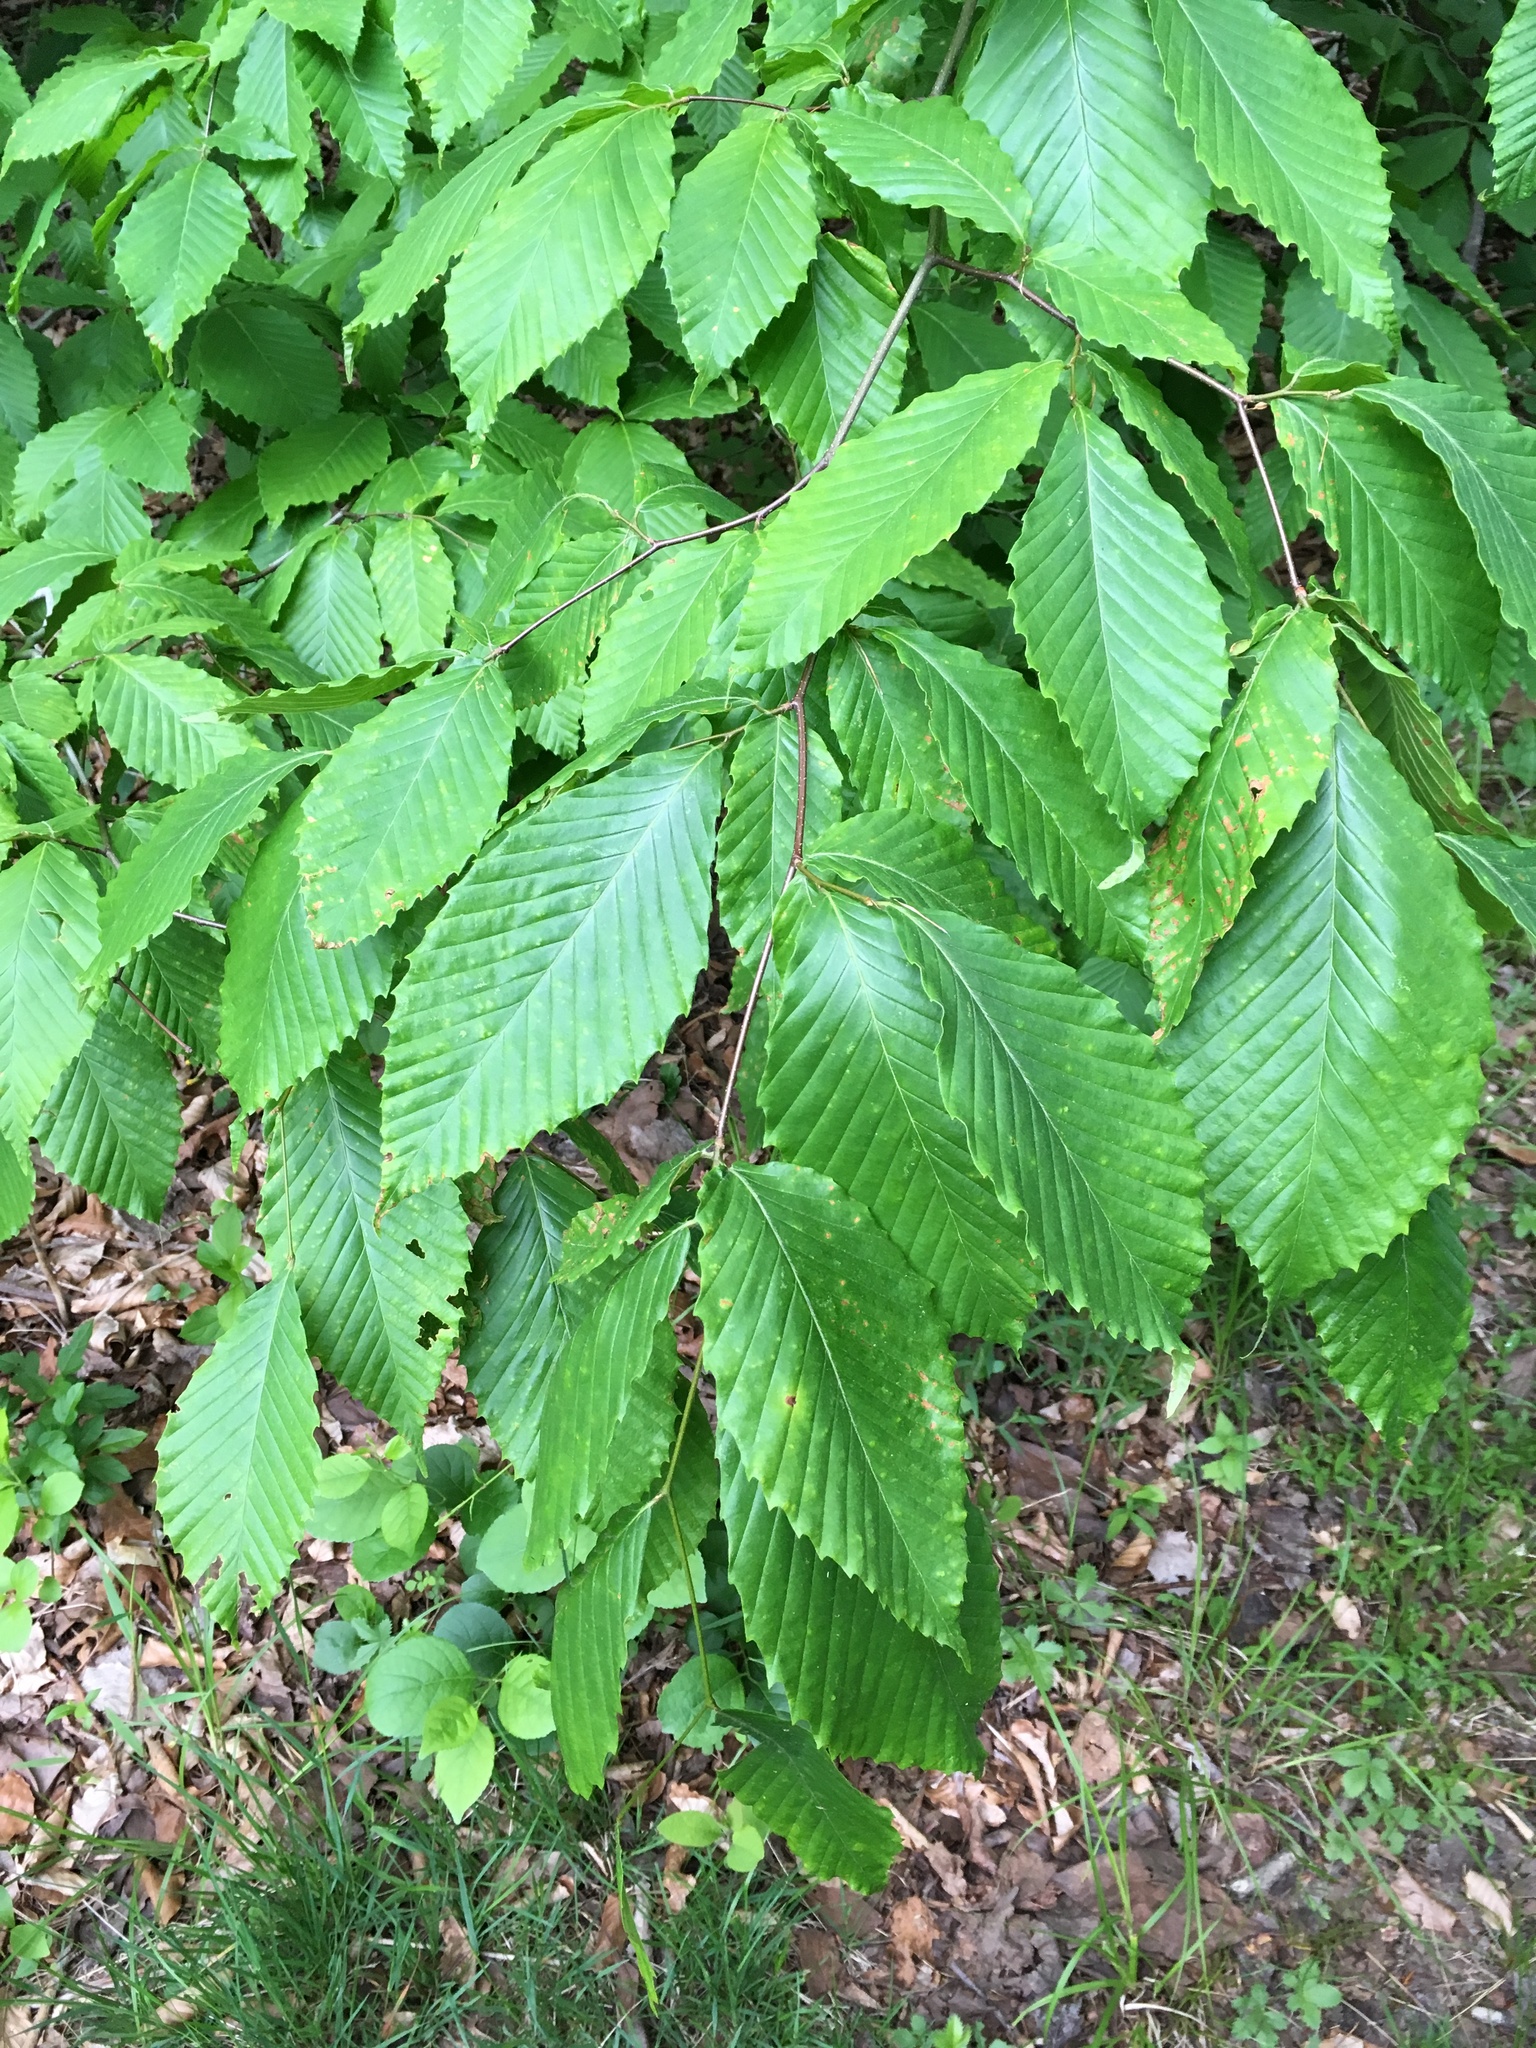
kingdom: Plantae
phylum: Tracheophyta
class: Magnoliopsida
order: Fagales
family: Fagaceae
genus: Fagus
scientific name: Fagus grandifolia
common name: American beech
